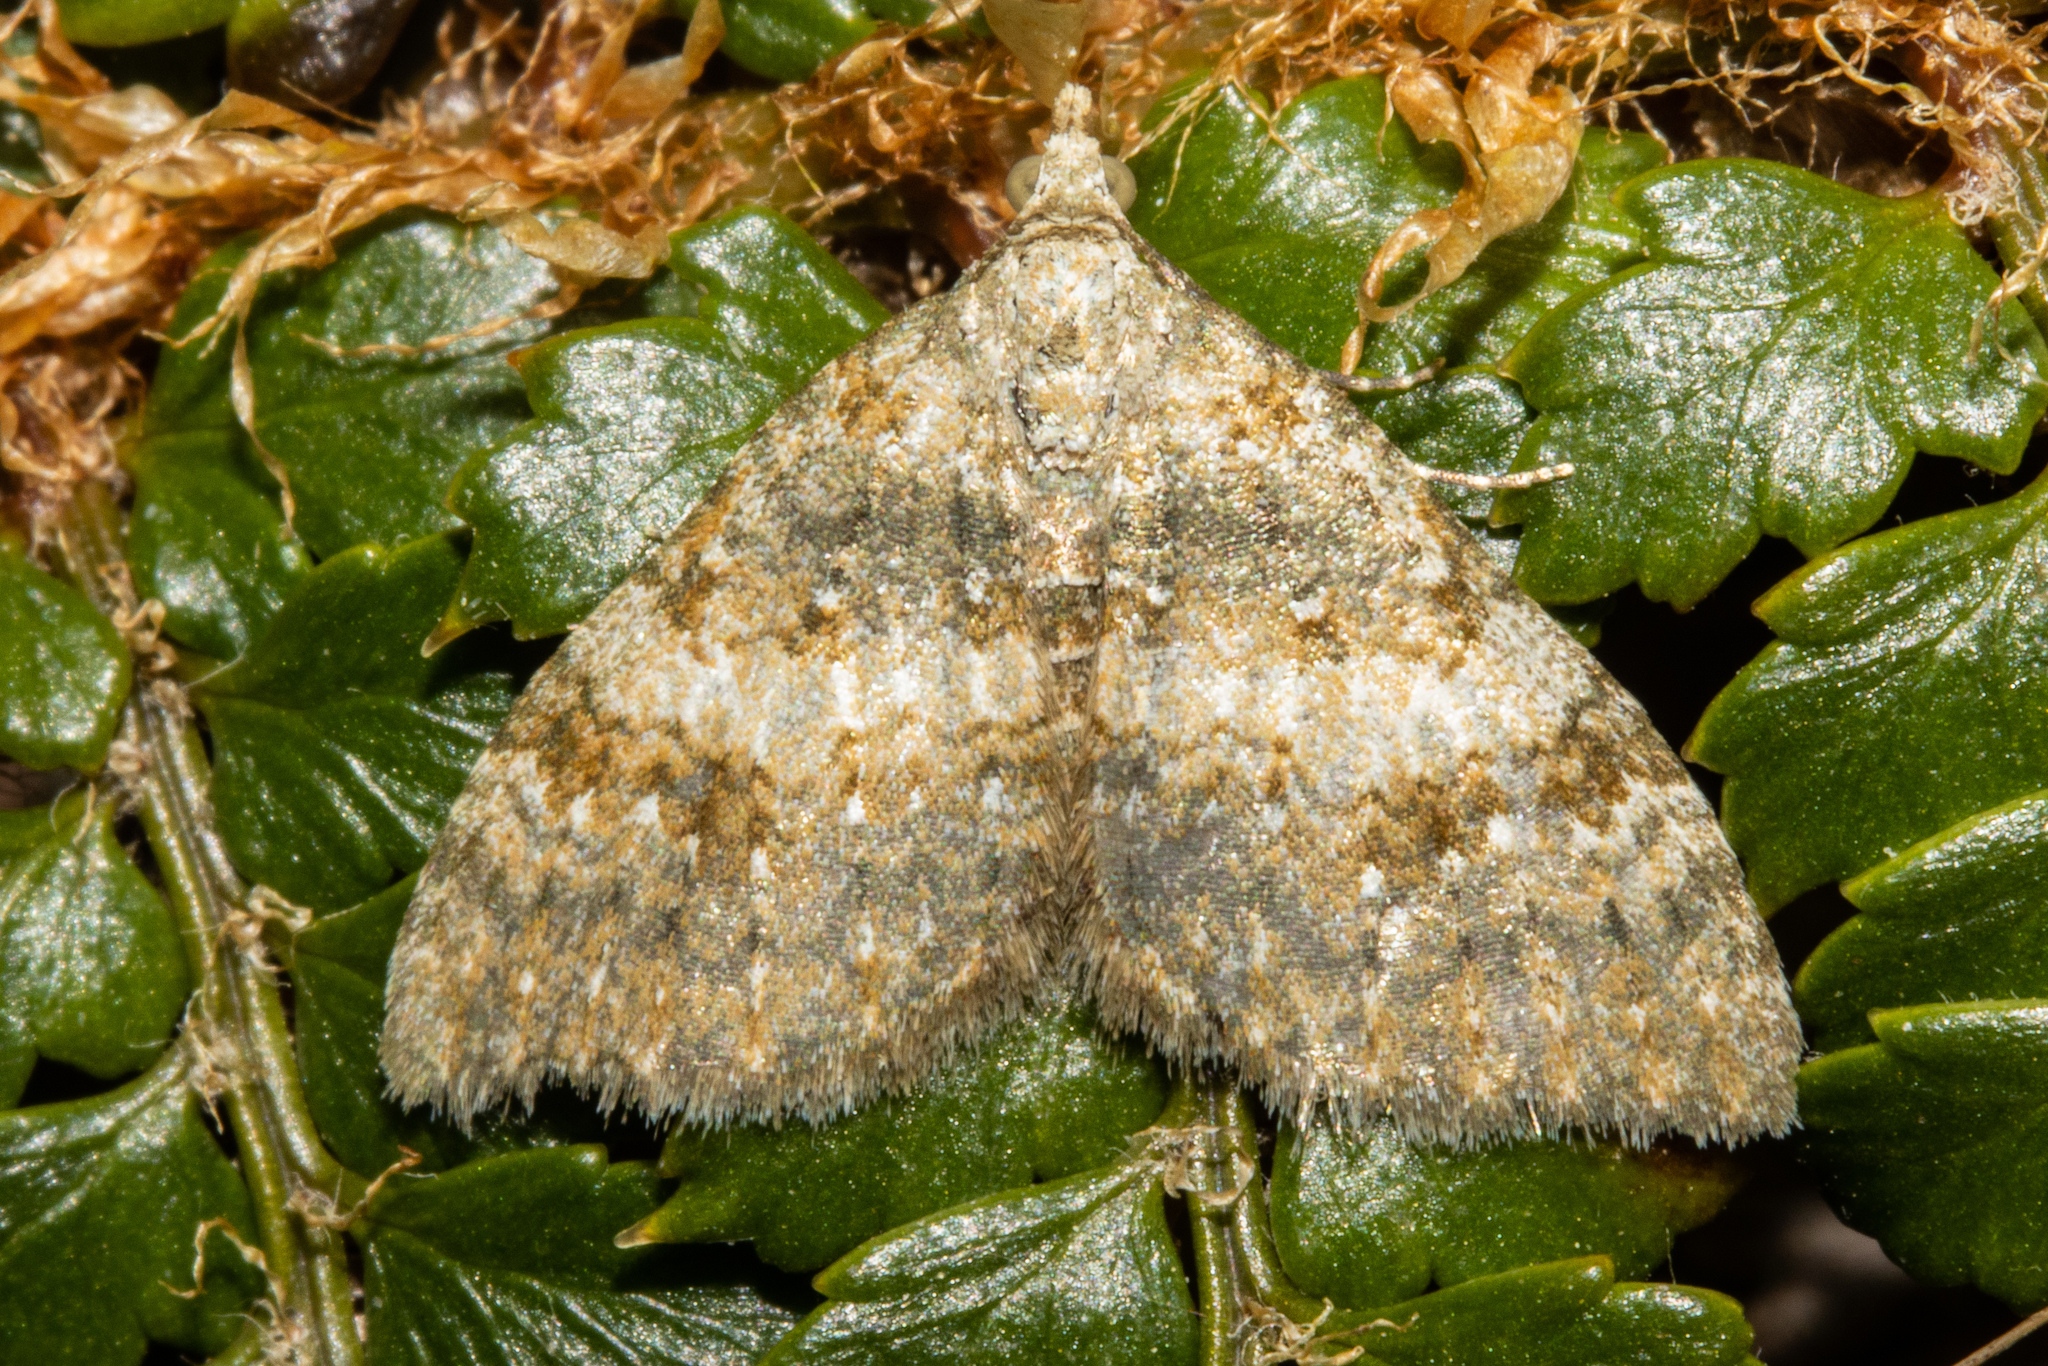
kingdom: Animalia
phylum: Arthropoda
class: Insecta
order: Lepidoptera
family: Geometridae
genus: Helastia
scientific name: Helastia plumbea
